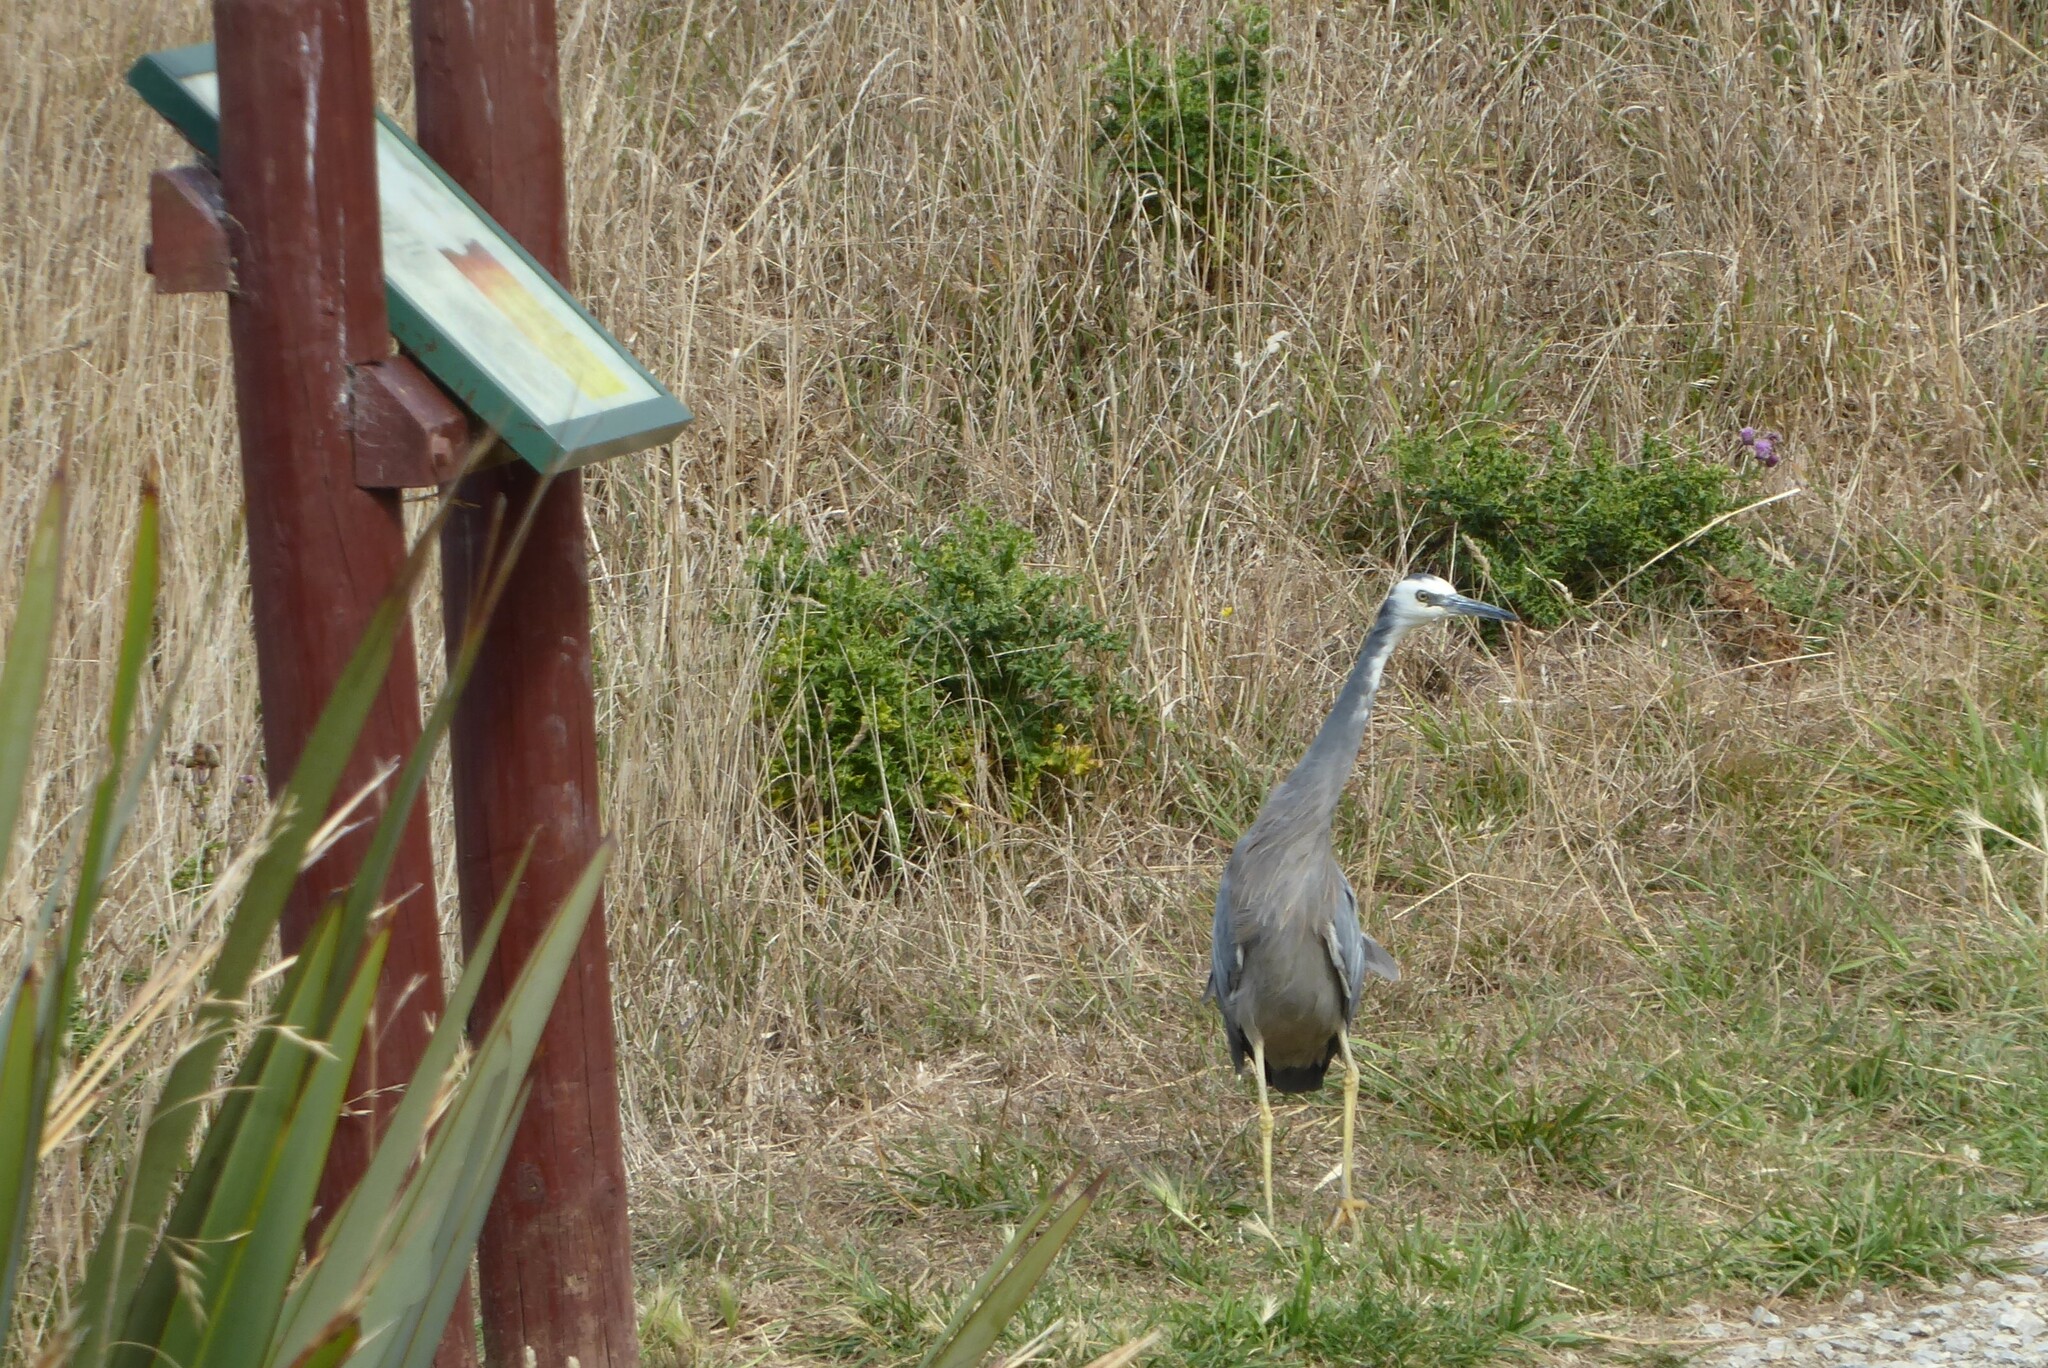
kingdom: Animalia
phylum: Chordata
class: Aves
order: Pelecaniformes
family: Ardeidae
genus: Egretta
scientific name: Egretta novaehollandiae
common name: White-faced heron
